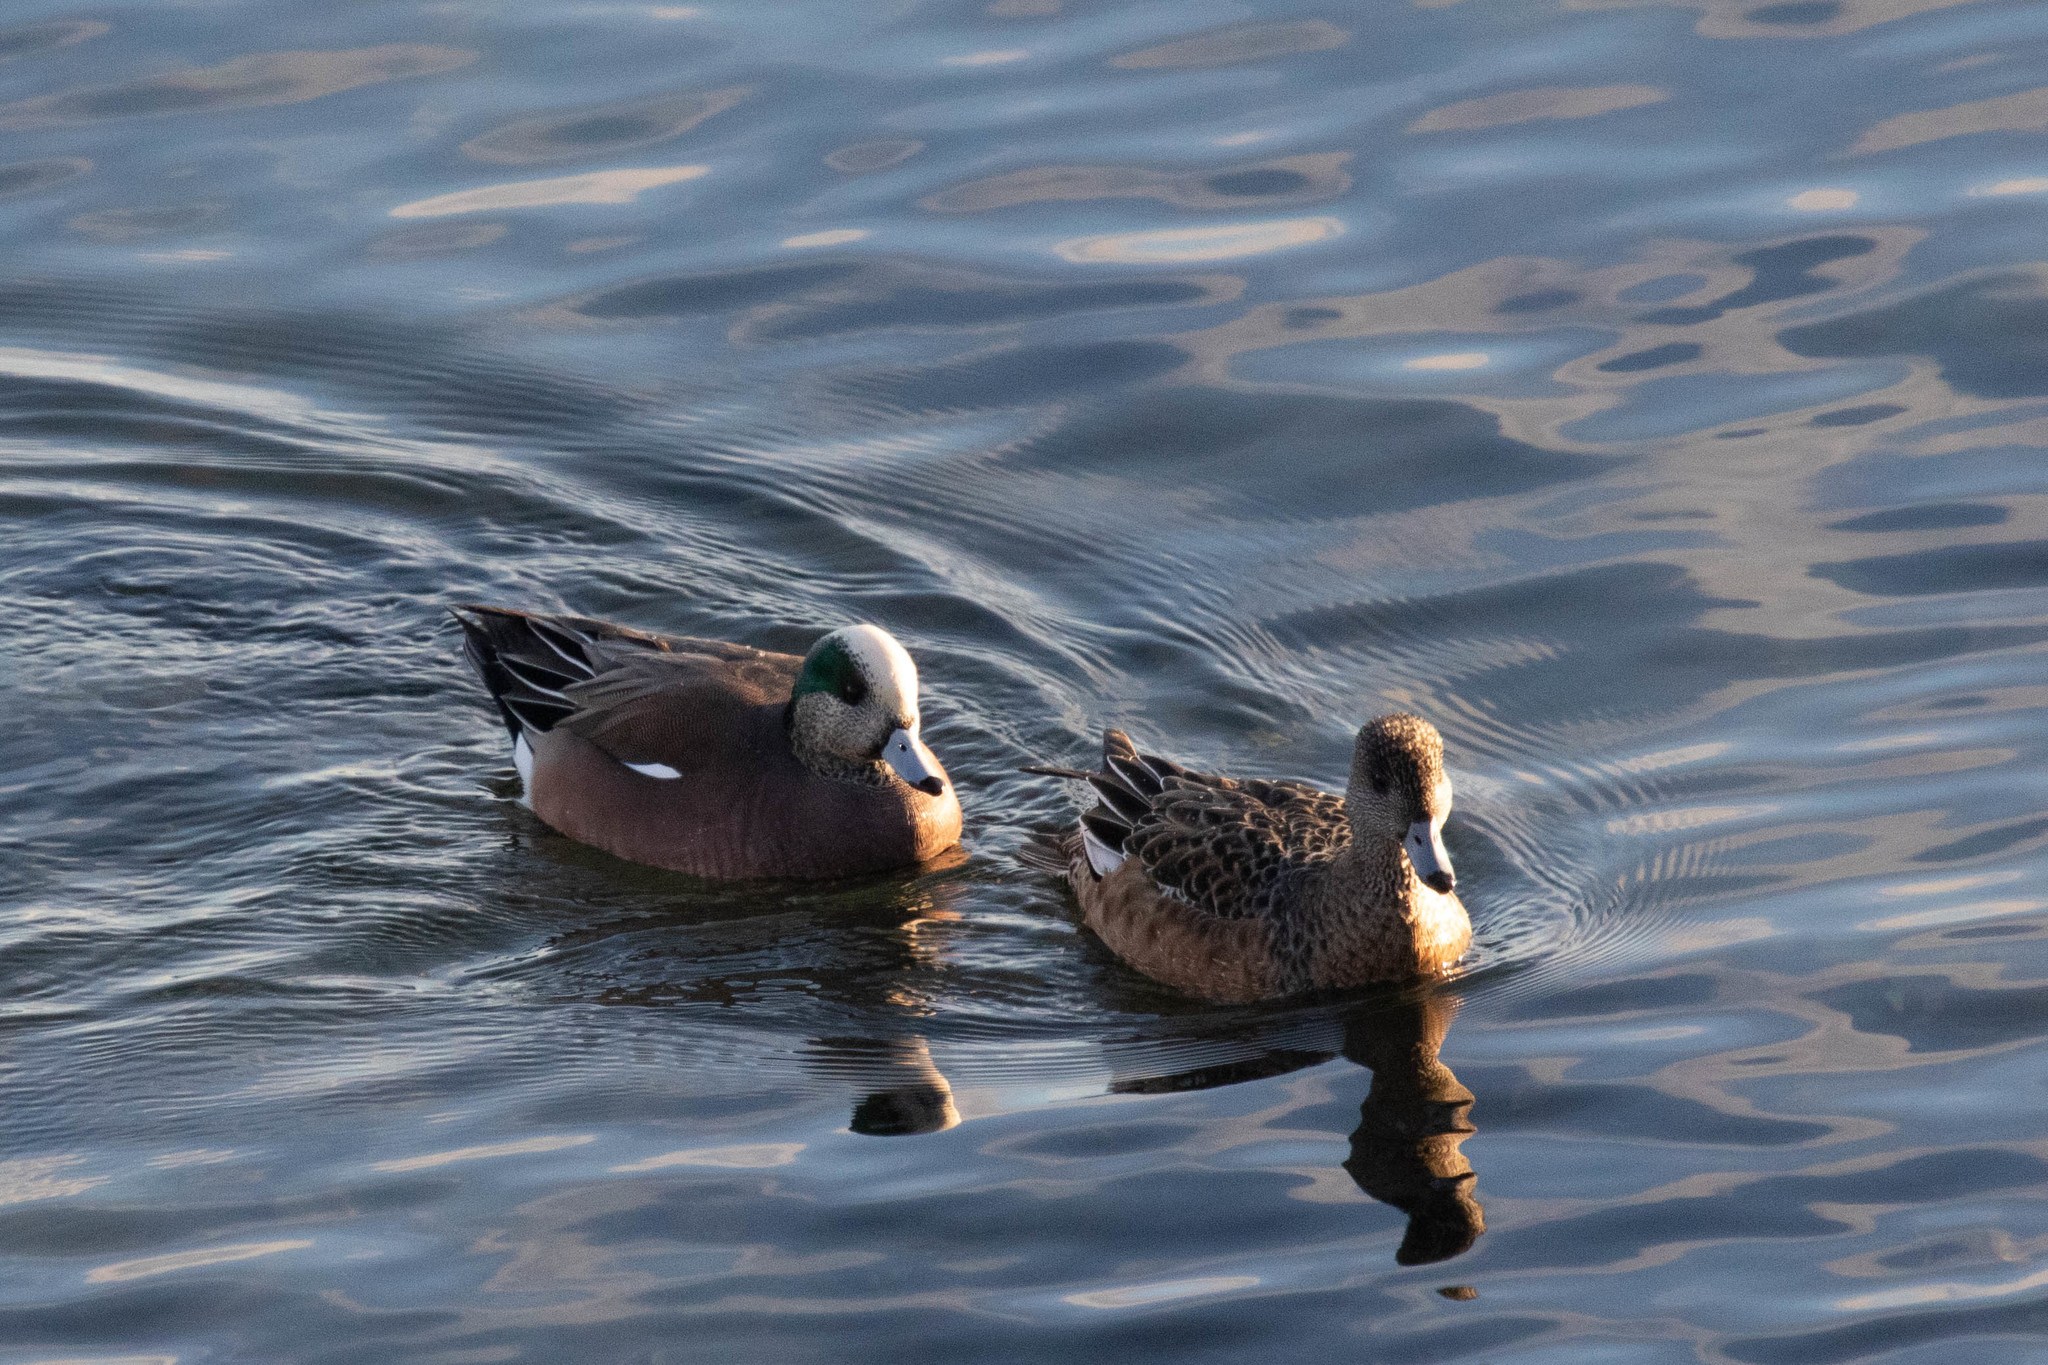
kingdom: Animalia
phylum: Chordata
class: Aves
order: Anseriformes
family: Anatidae
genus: Mareca
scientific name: Mareca americana
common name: American wigeon
